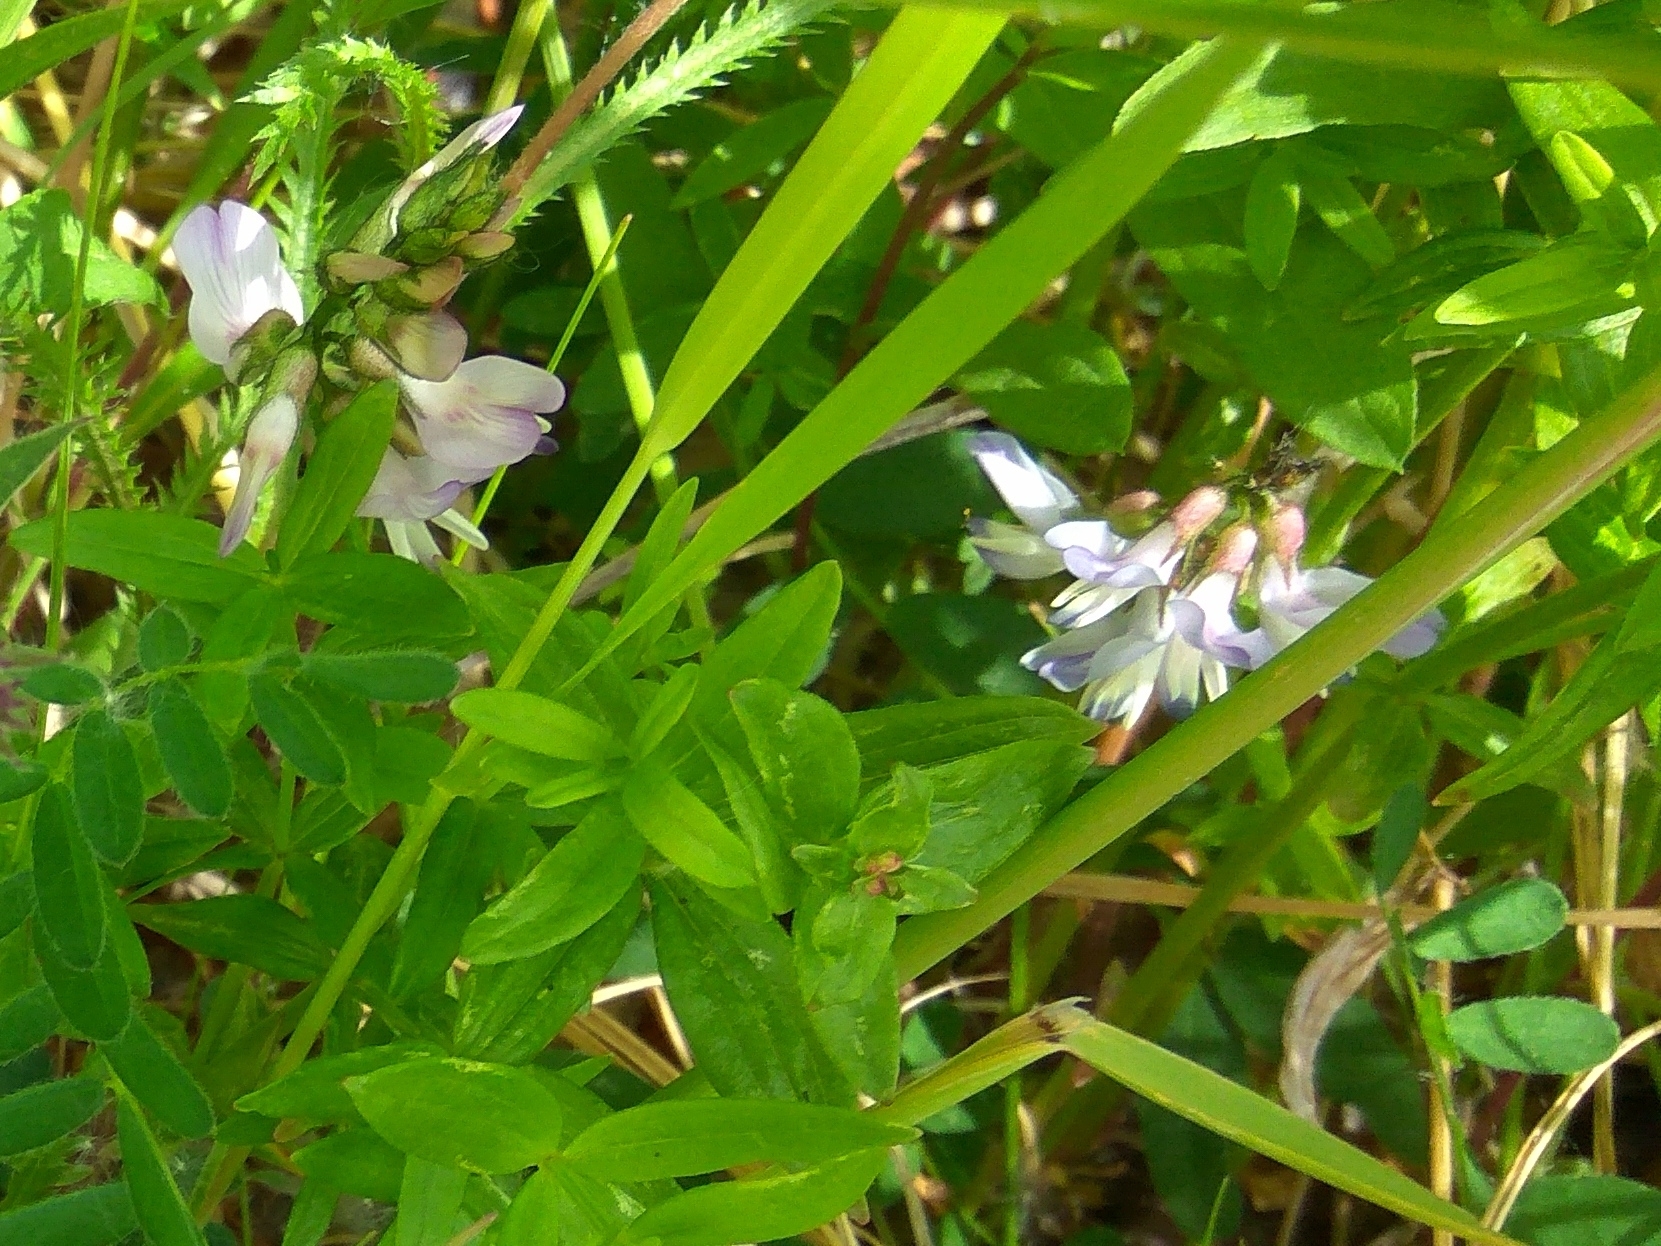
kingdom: Plantae
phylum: Tracheophyta
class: Magnoliopsida
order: Fabales
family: Fabaceae
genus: Astragalus
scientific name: Astragalus alpinus
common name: Alpine milk-vetch
